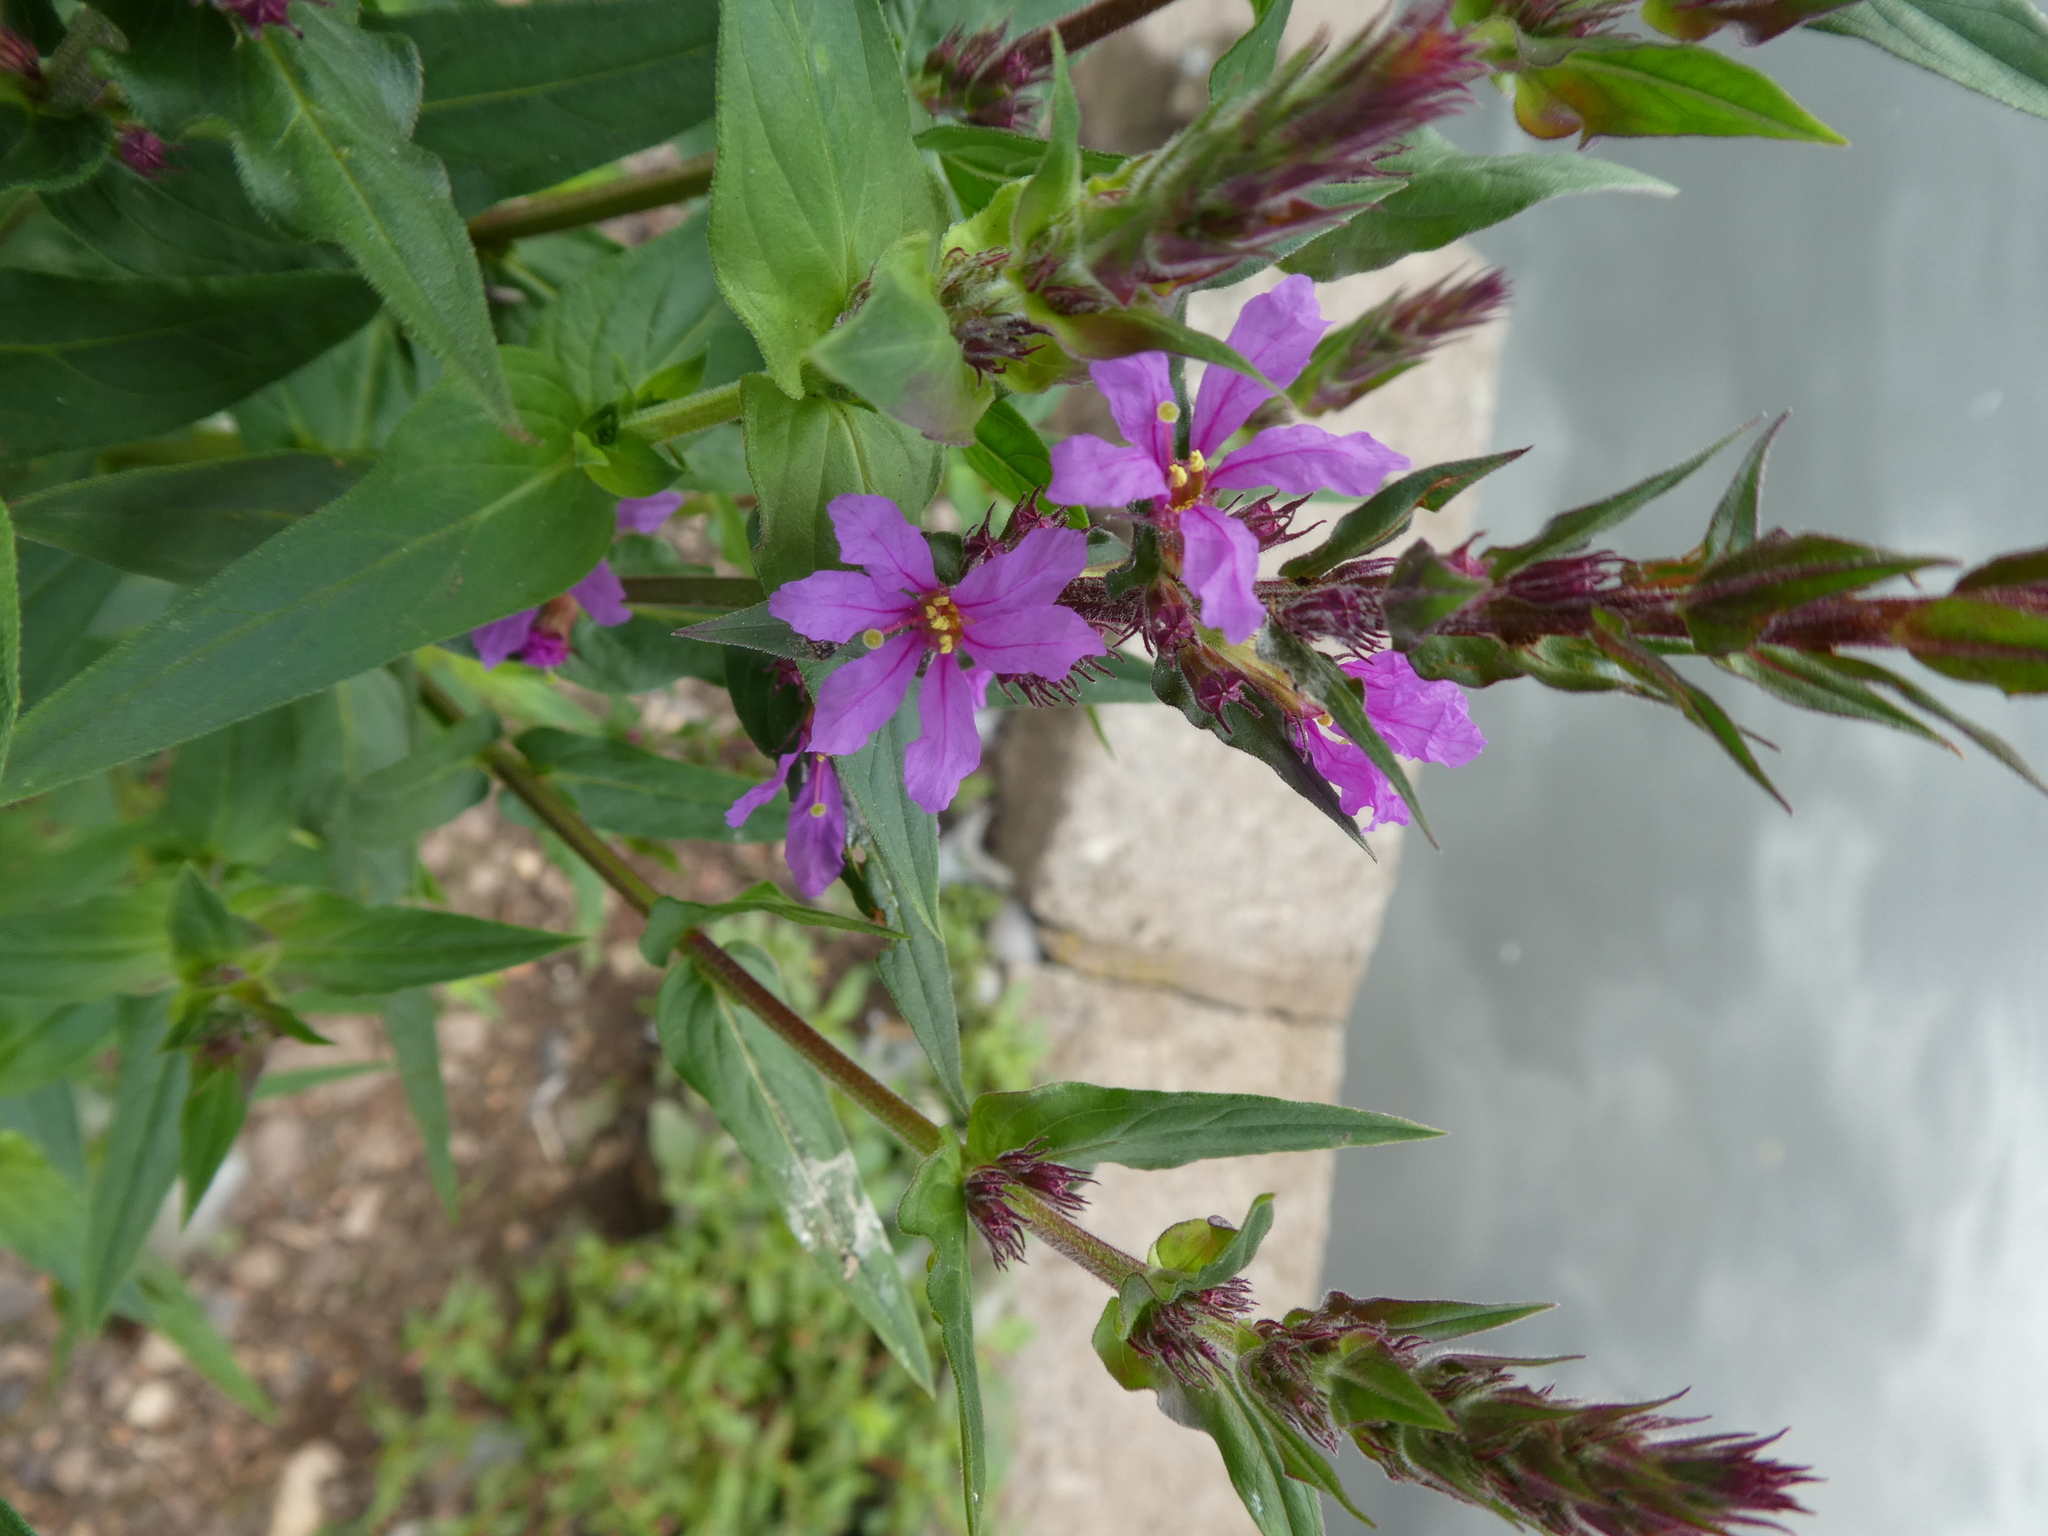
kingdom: Plantae
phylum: Tracheophyta
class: Magnoliopsida
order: Myrtales
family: Lythraceae
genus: Lythrum
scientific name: Lythrum salicaria
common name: Purple loosestrife
